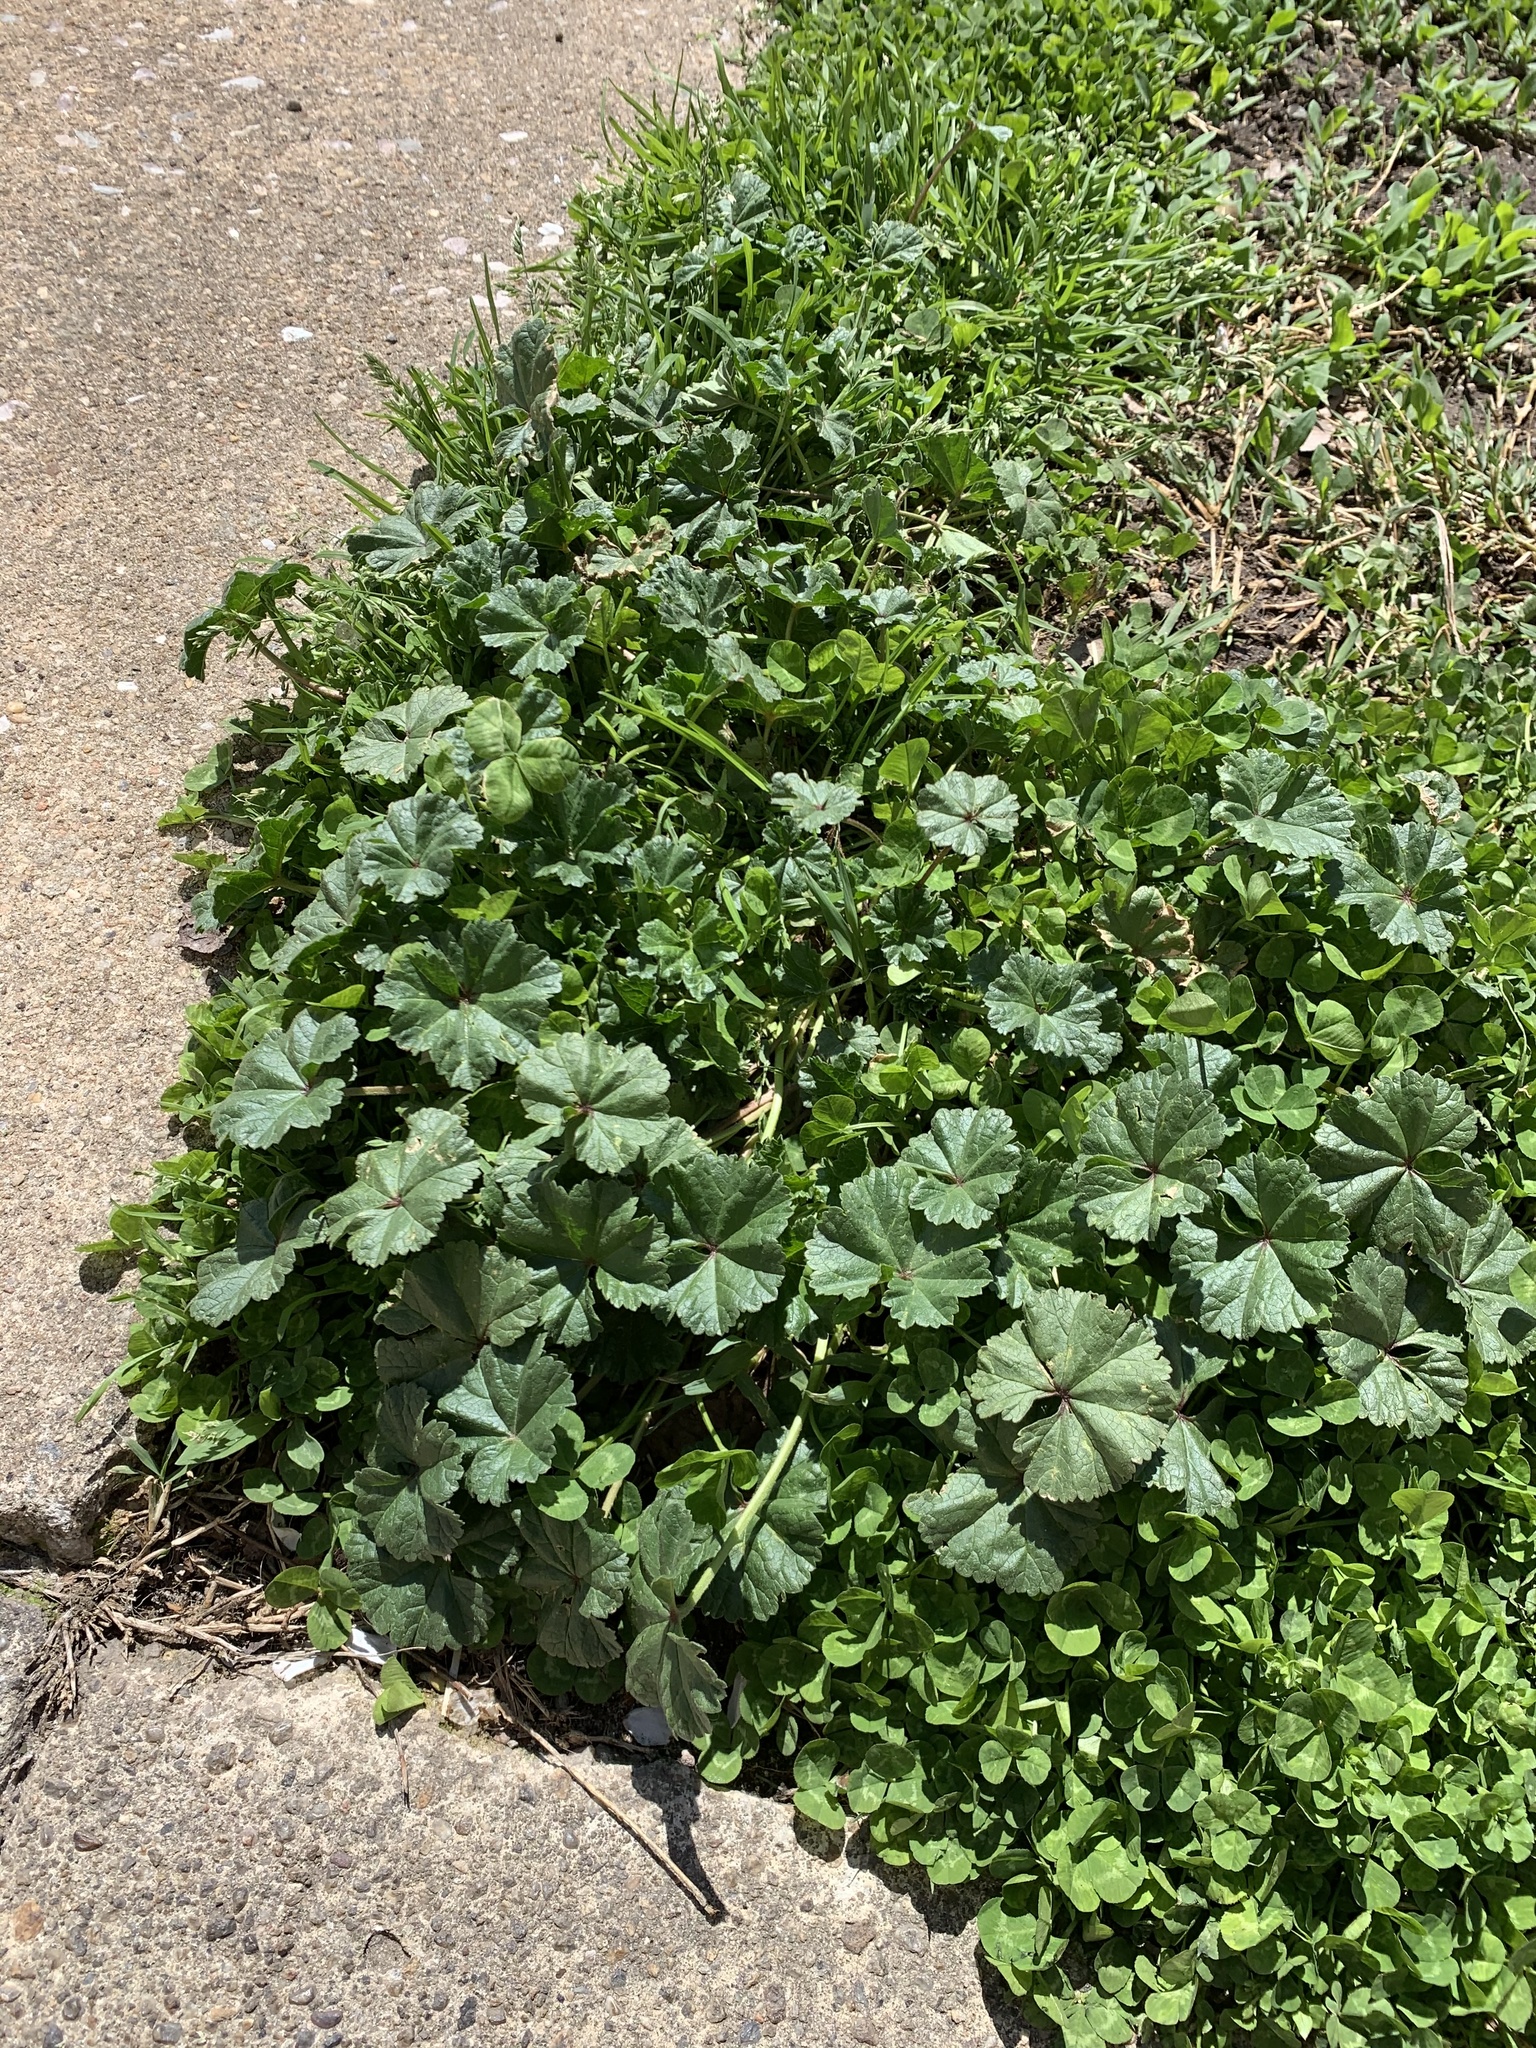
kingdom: Plantae
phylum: Tracheophyta
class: Magnoliopsida
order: Malvales
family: Malvaceae
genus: Malva
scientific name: Malva neglecta
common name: Common mallow
